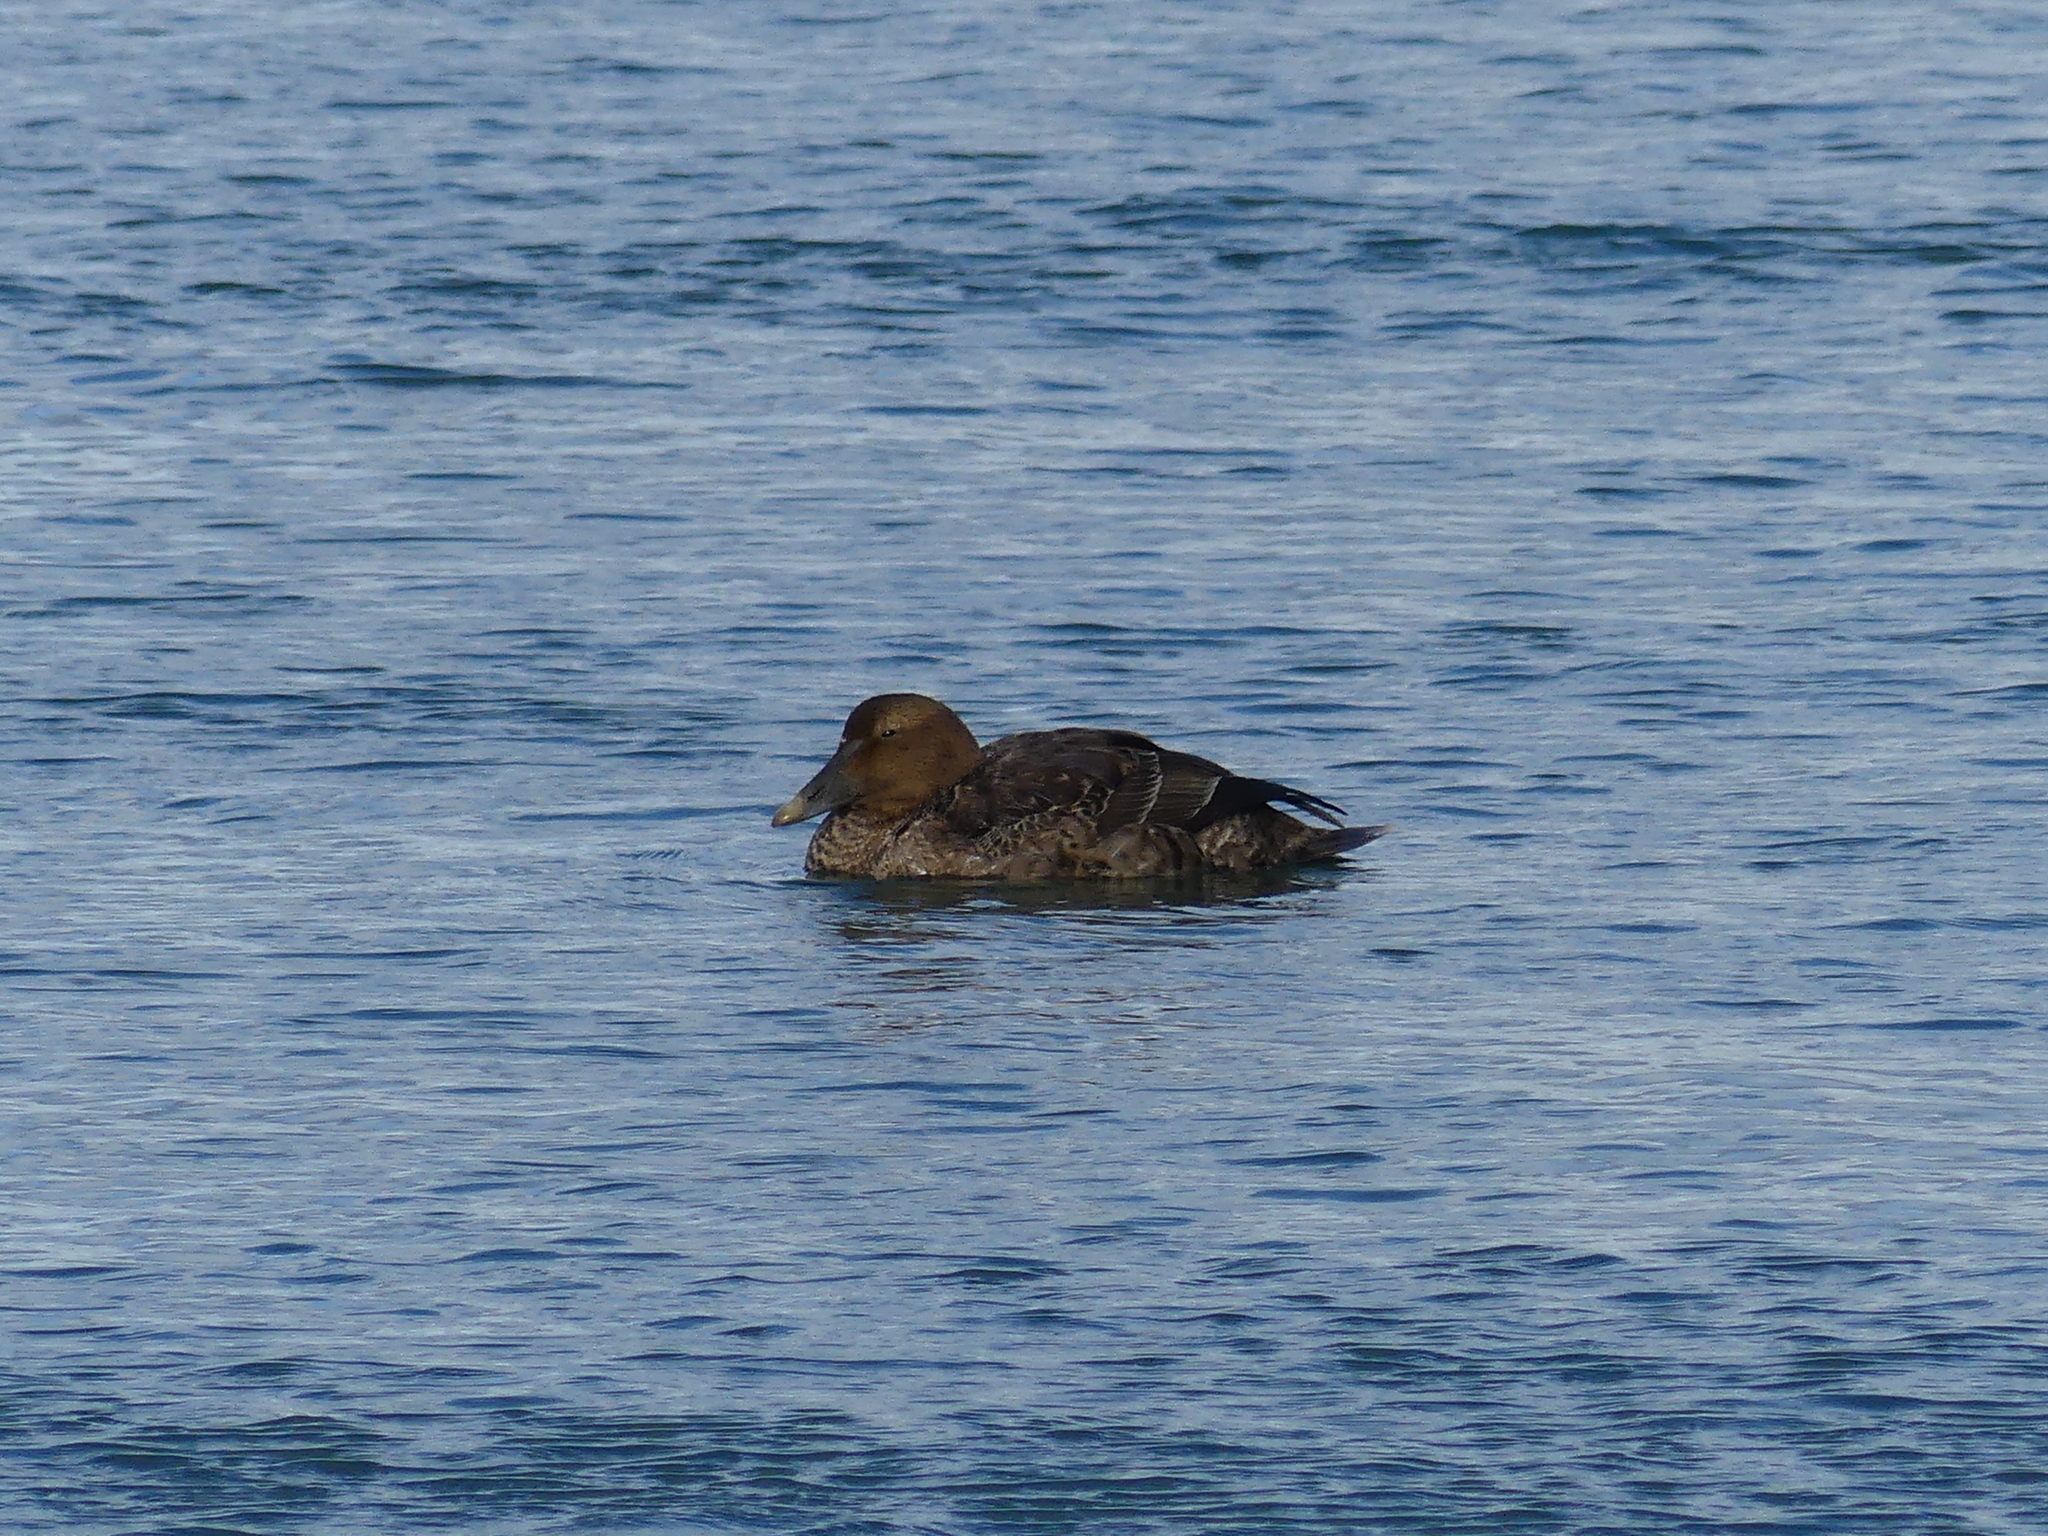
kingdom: Animalia
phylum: Chordata
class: Aves
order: Anseriformes
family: Anatidae
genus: Somateria
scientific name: Somateria mollissima
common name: Common eider
